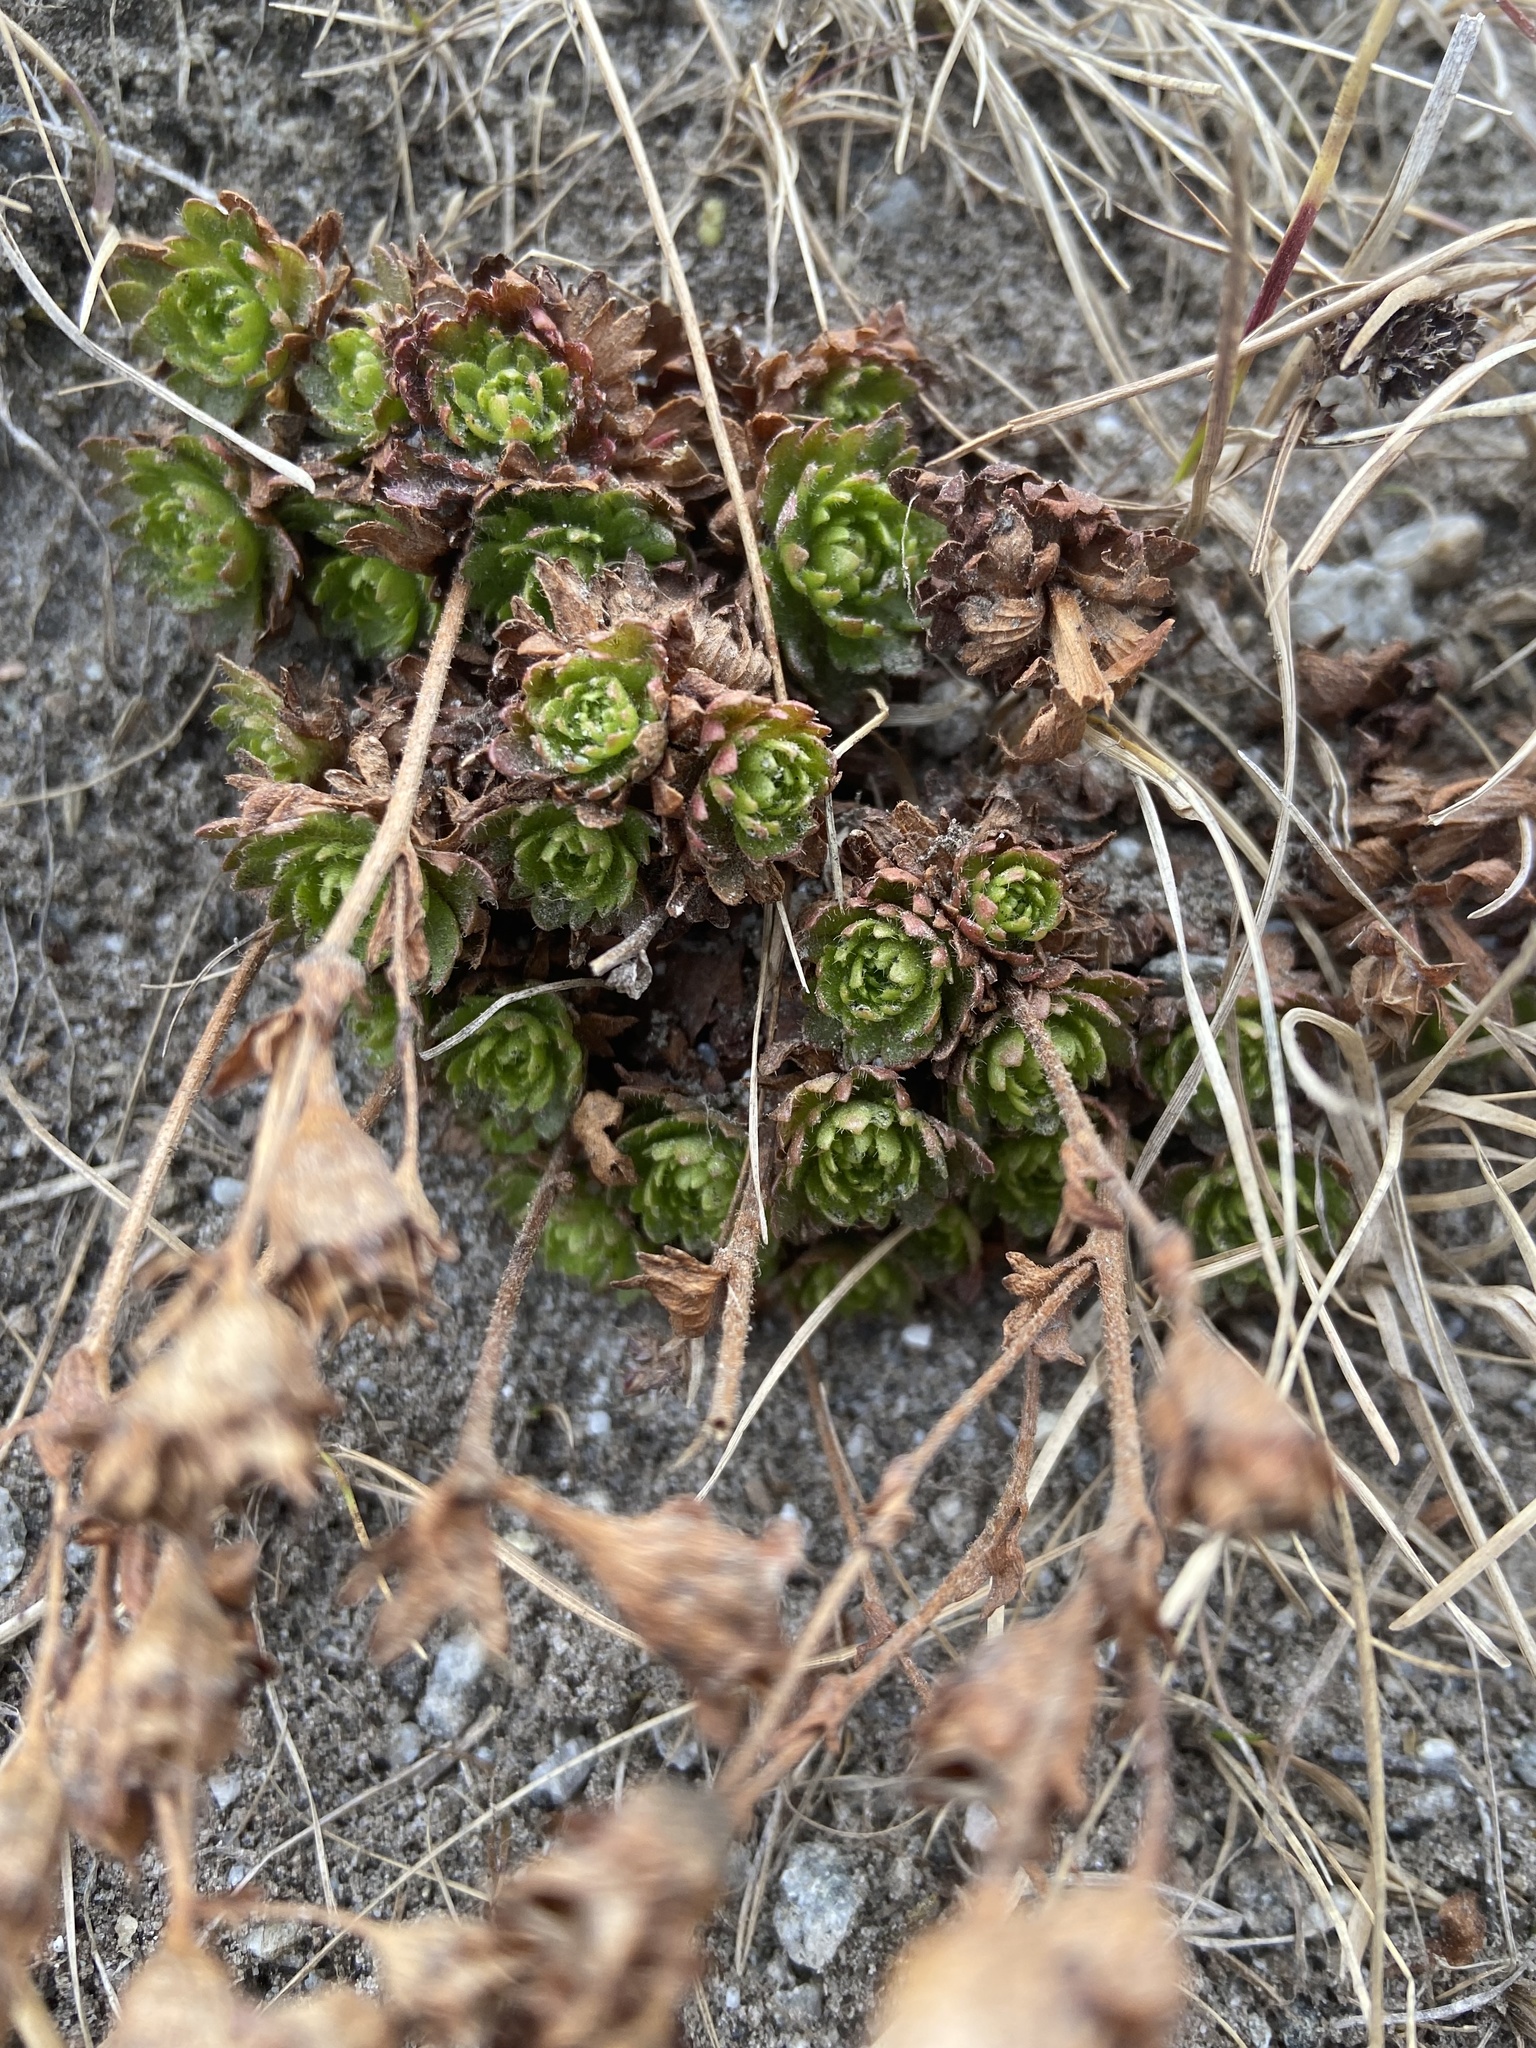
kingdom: Plantae
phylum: Tracheophyta
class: Magnoliopsida
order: Saxifragales
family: Saxifragaceae
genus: Saxifraga
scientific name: Saxifraga cespitosa
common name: Tufted saxifrage
